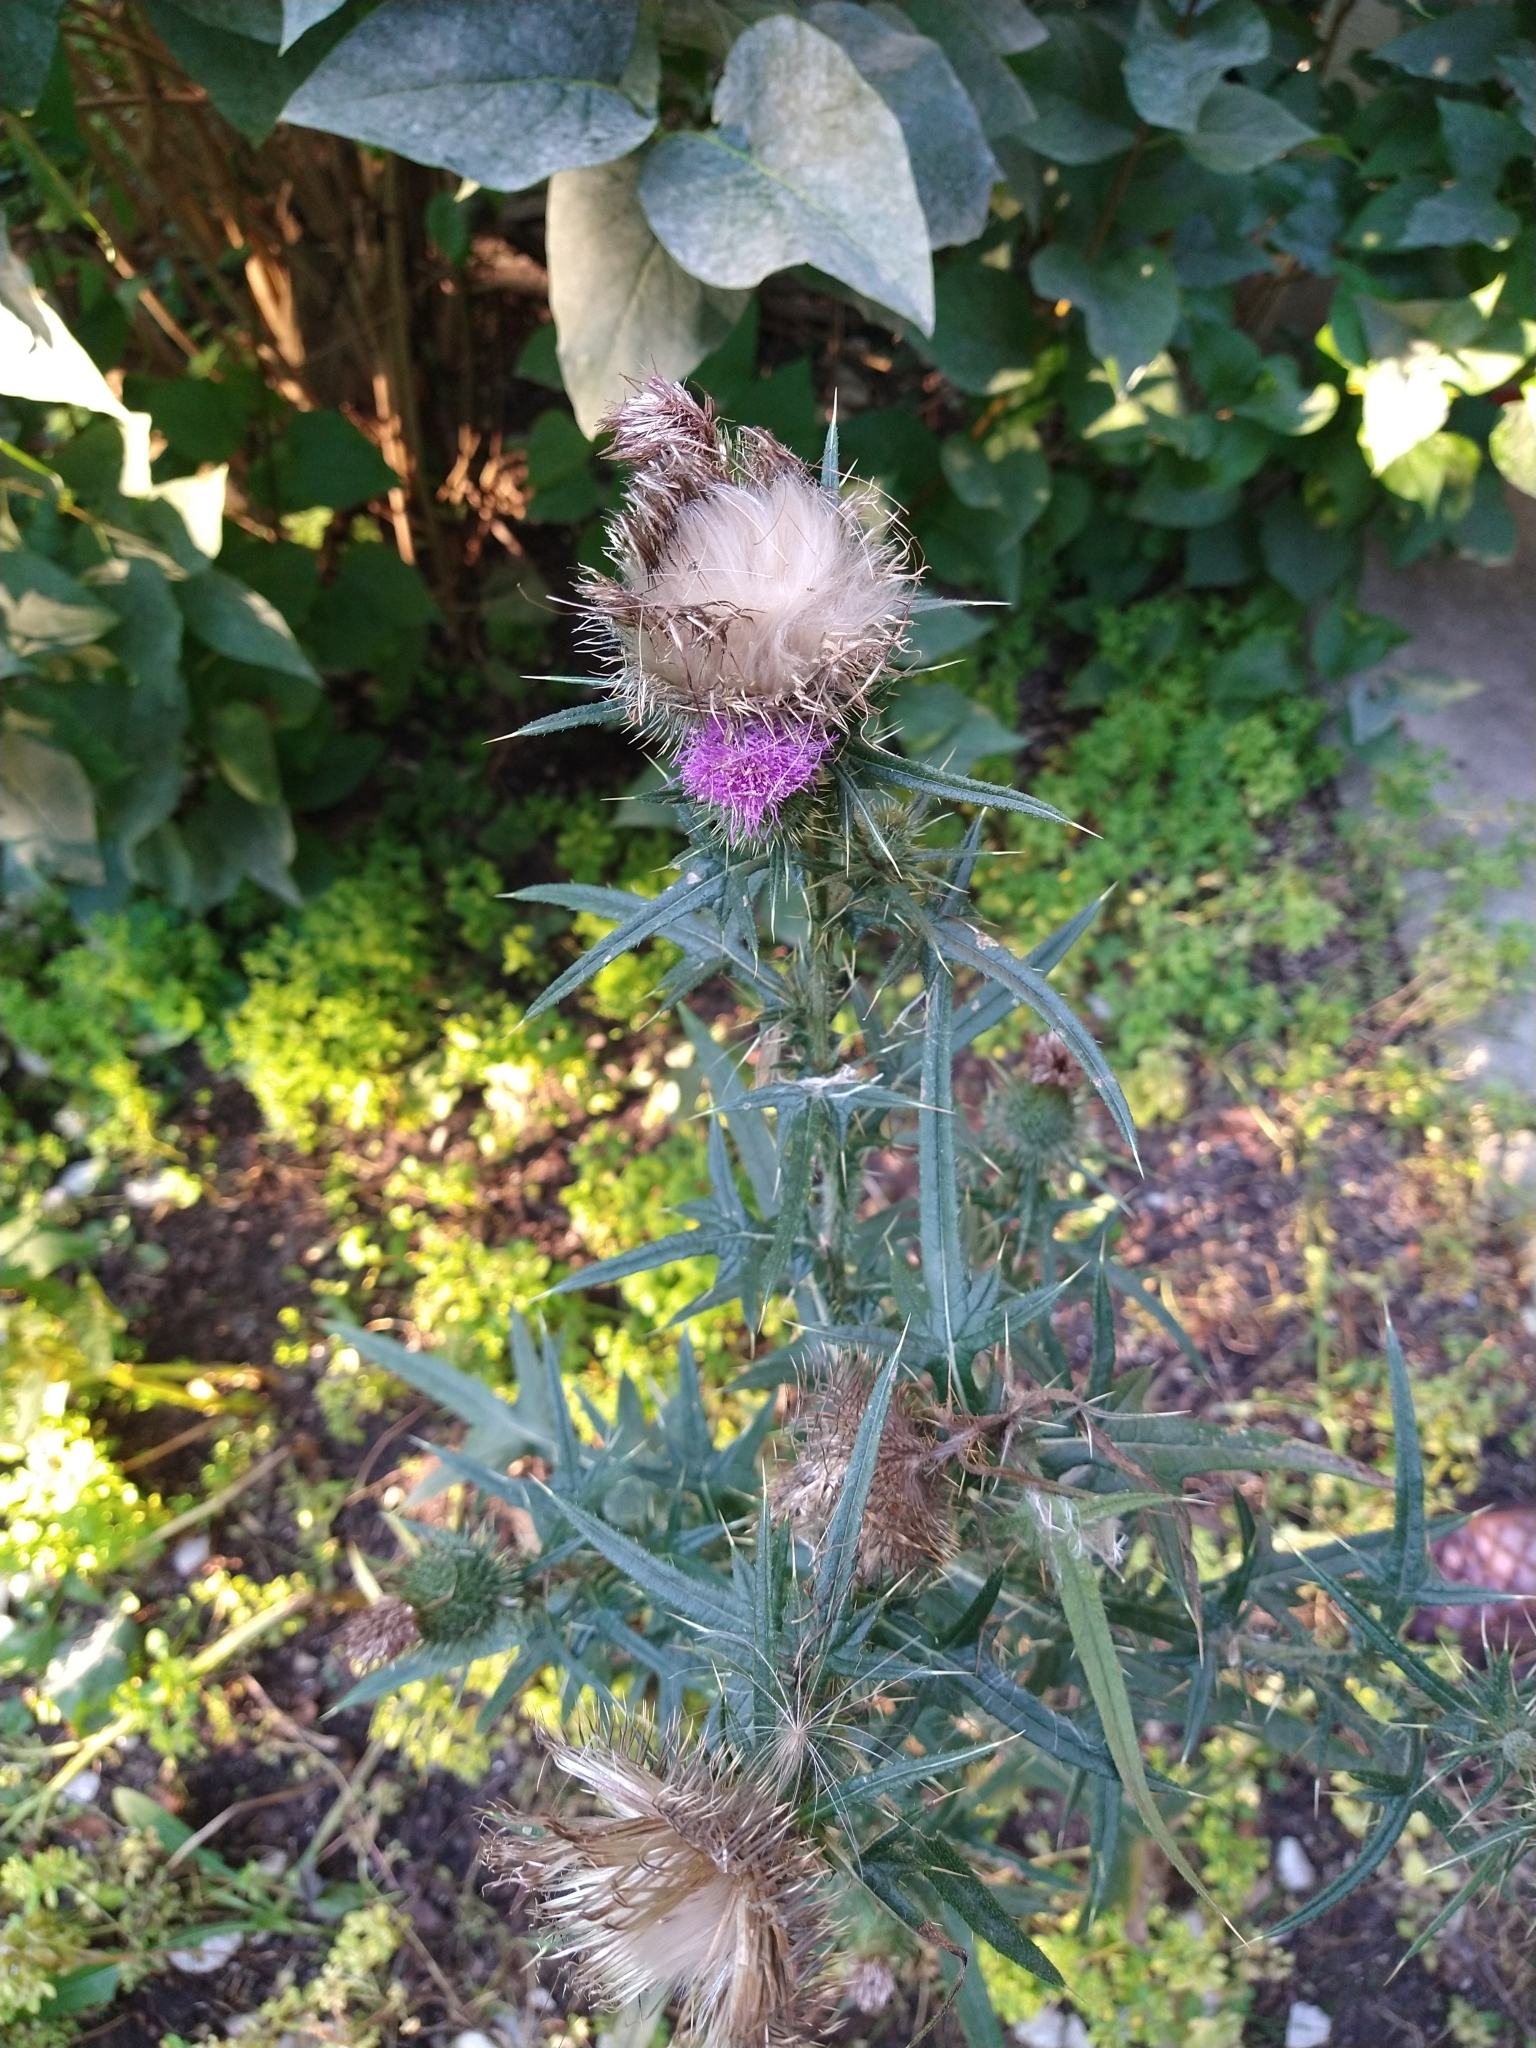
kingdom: Plantae
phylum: Tracheophyta
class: Magnoliopsida
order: Asterales
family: Asteraceae
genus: Cirsium
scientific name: Cirsium vulgare
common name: Bull thistle
